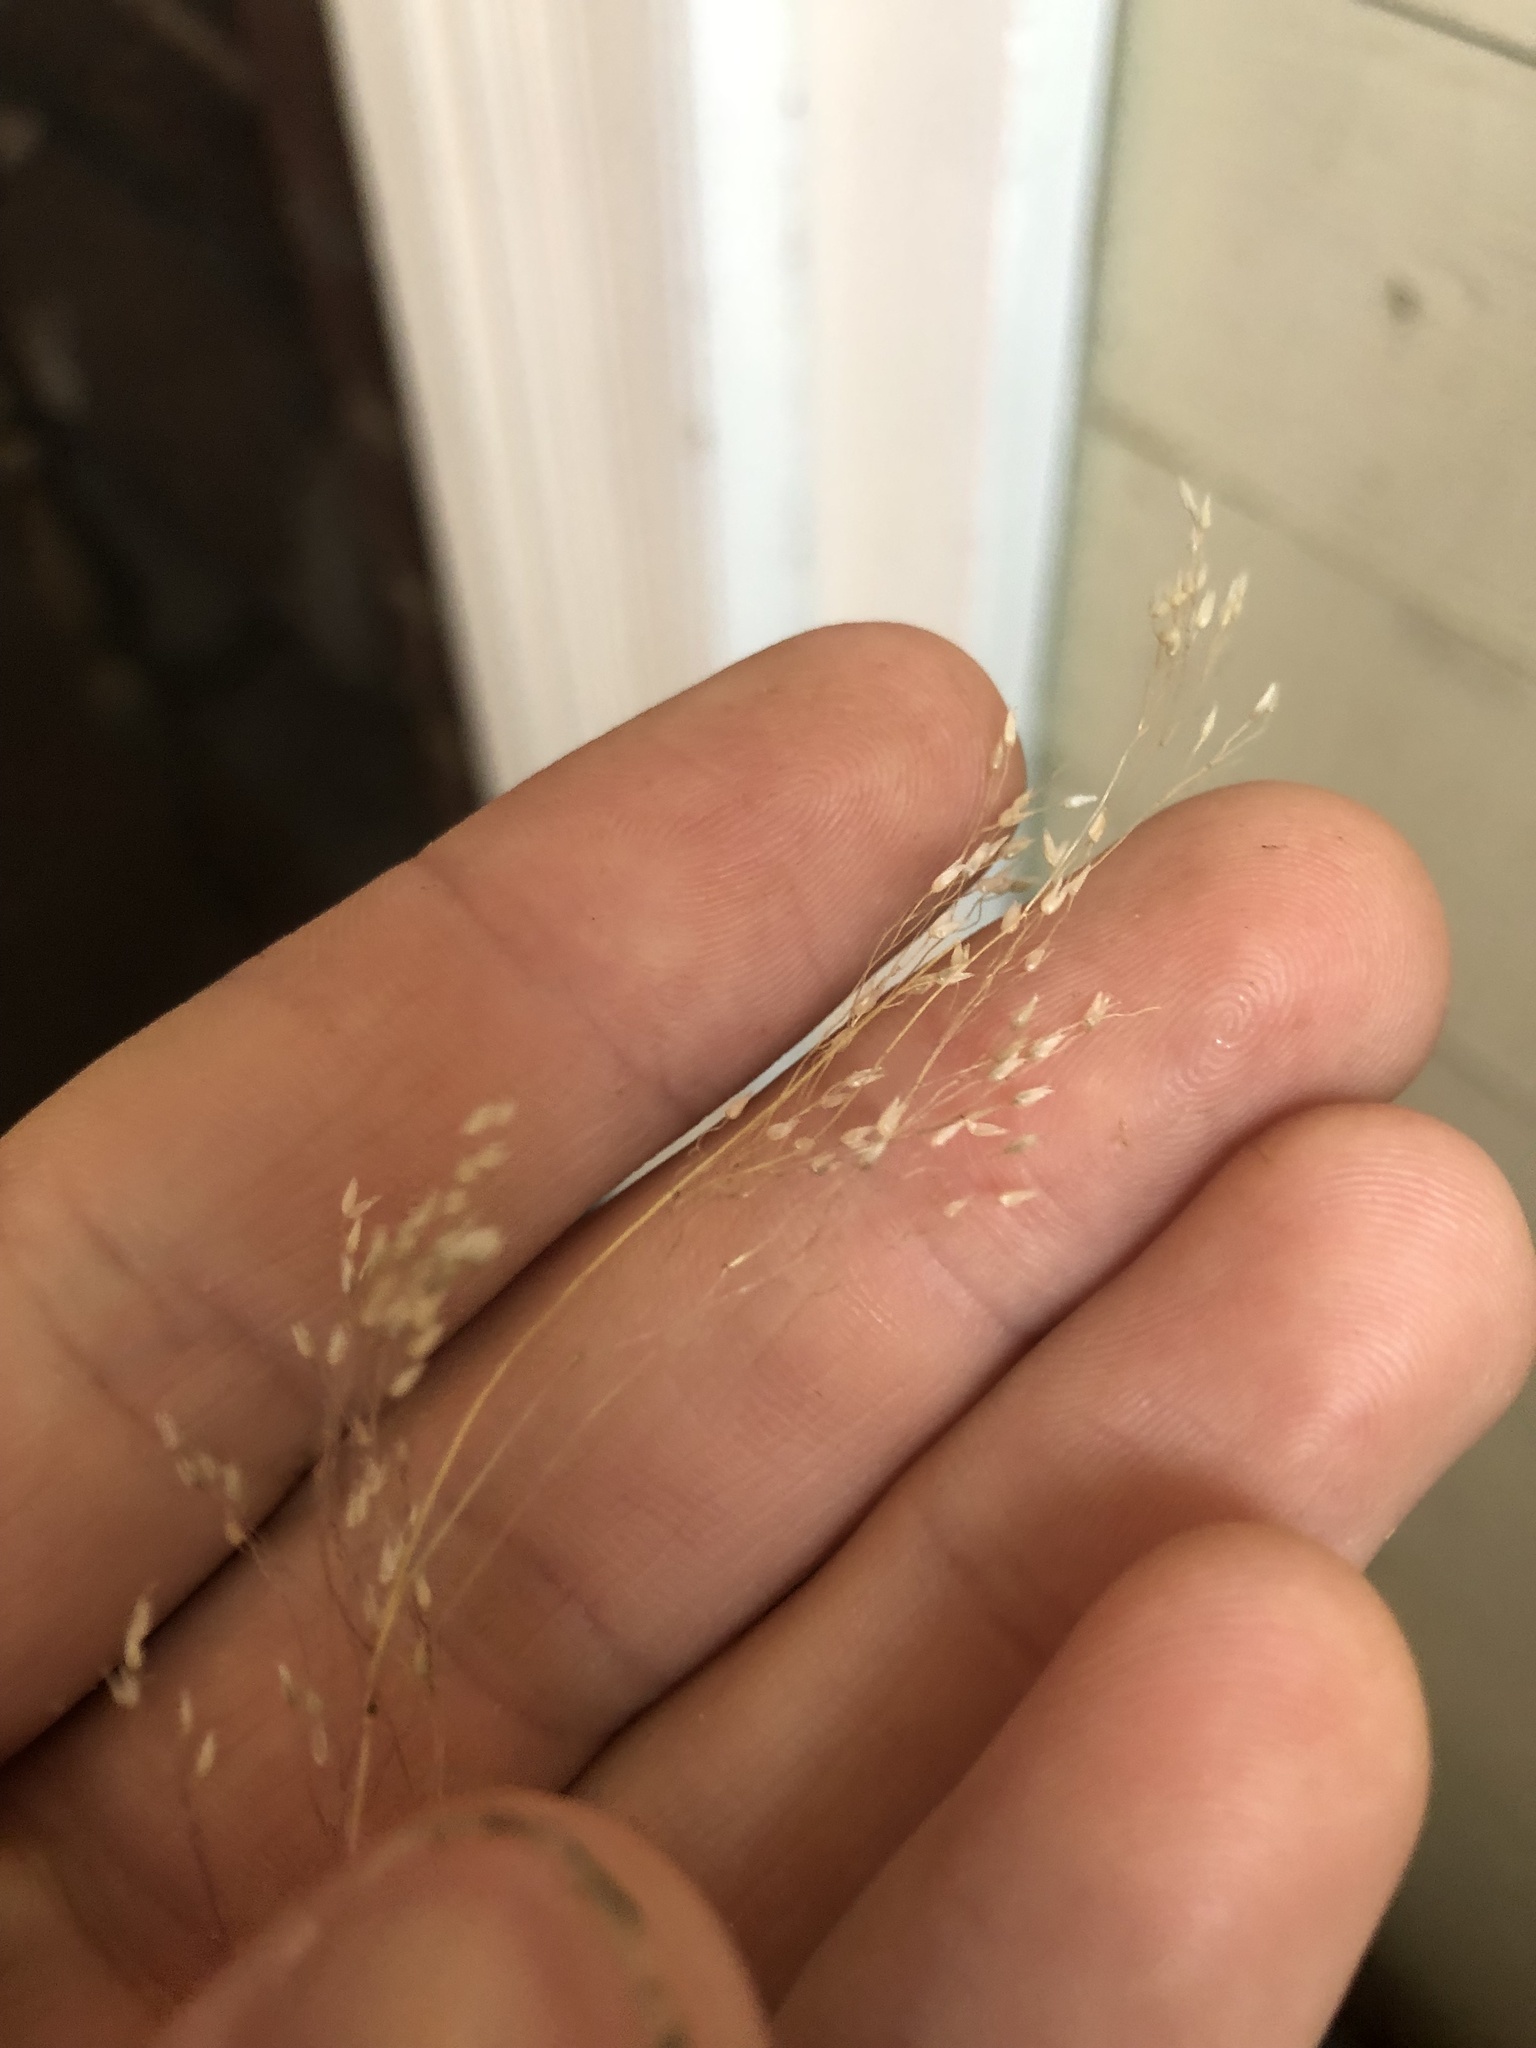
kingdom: Plantae
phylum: Tracheophyta
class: Liliopsida
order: Poales
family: Poaceae
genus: Aira
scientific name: Aira caryophyllea
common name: Silver hairgrass
